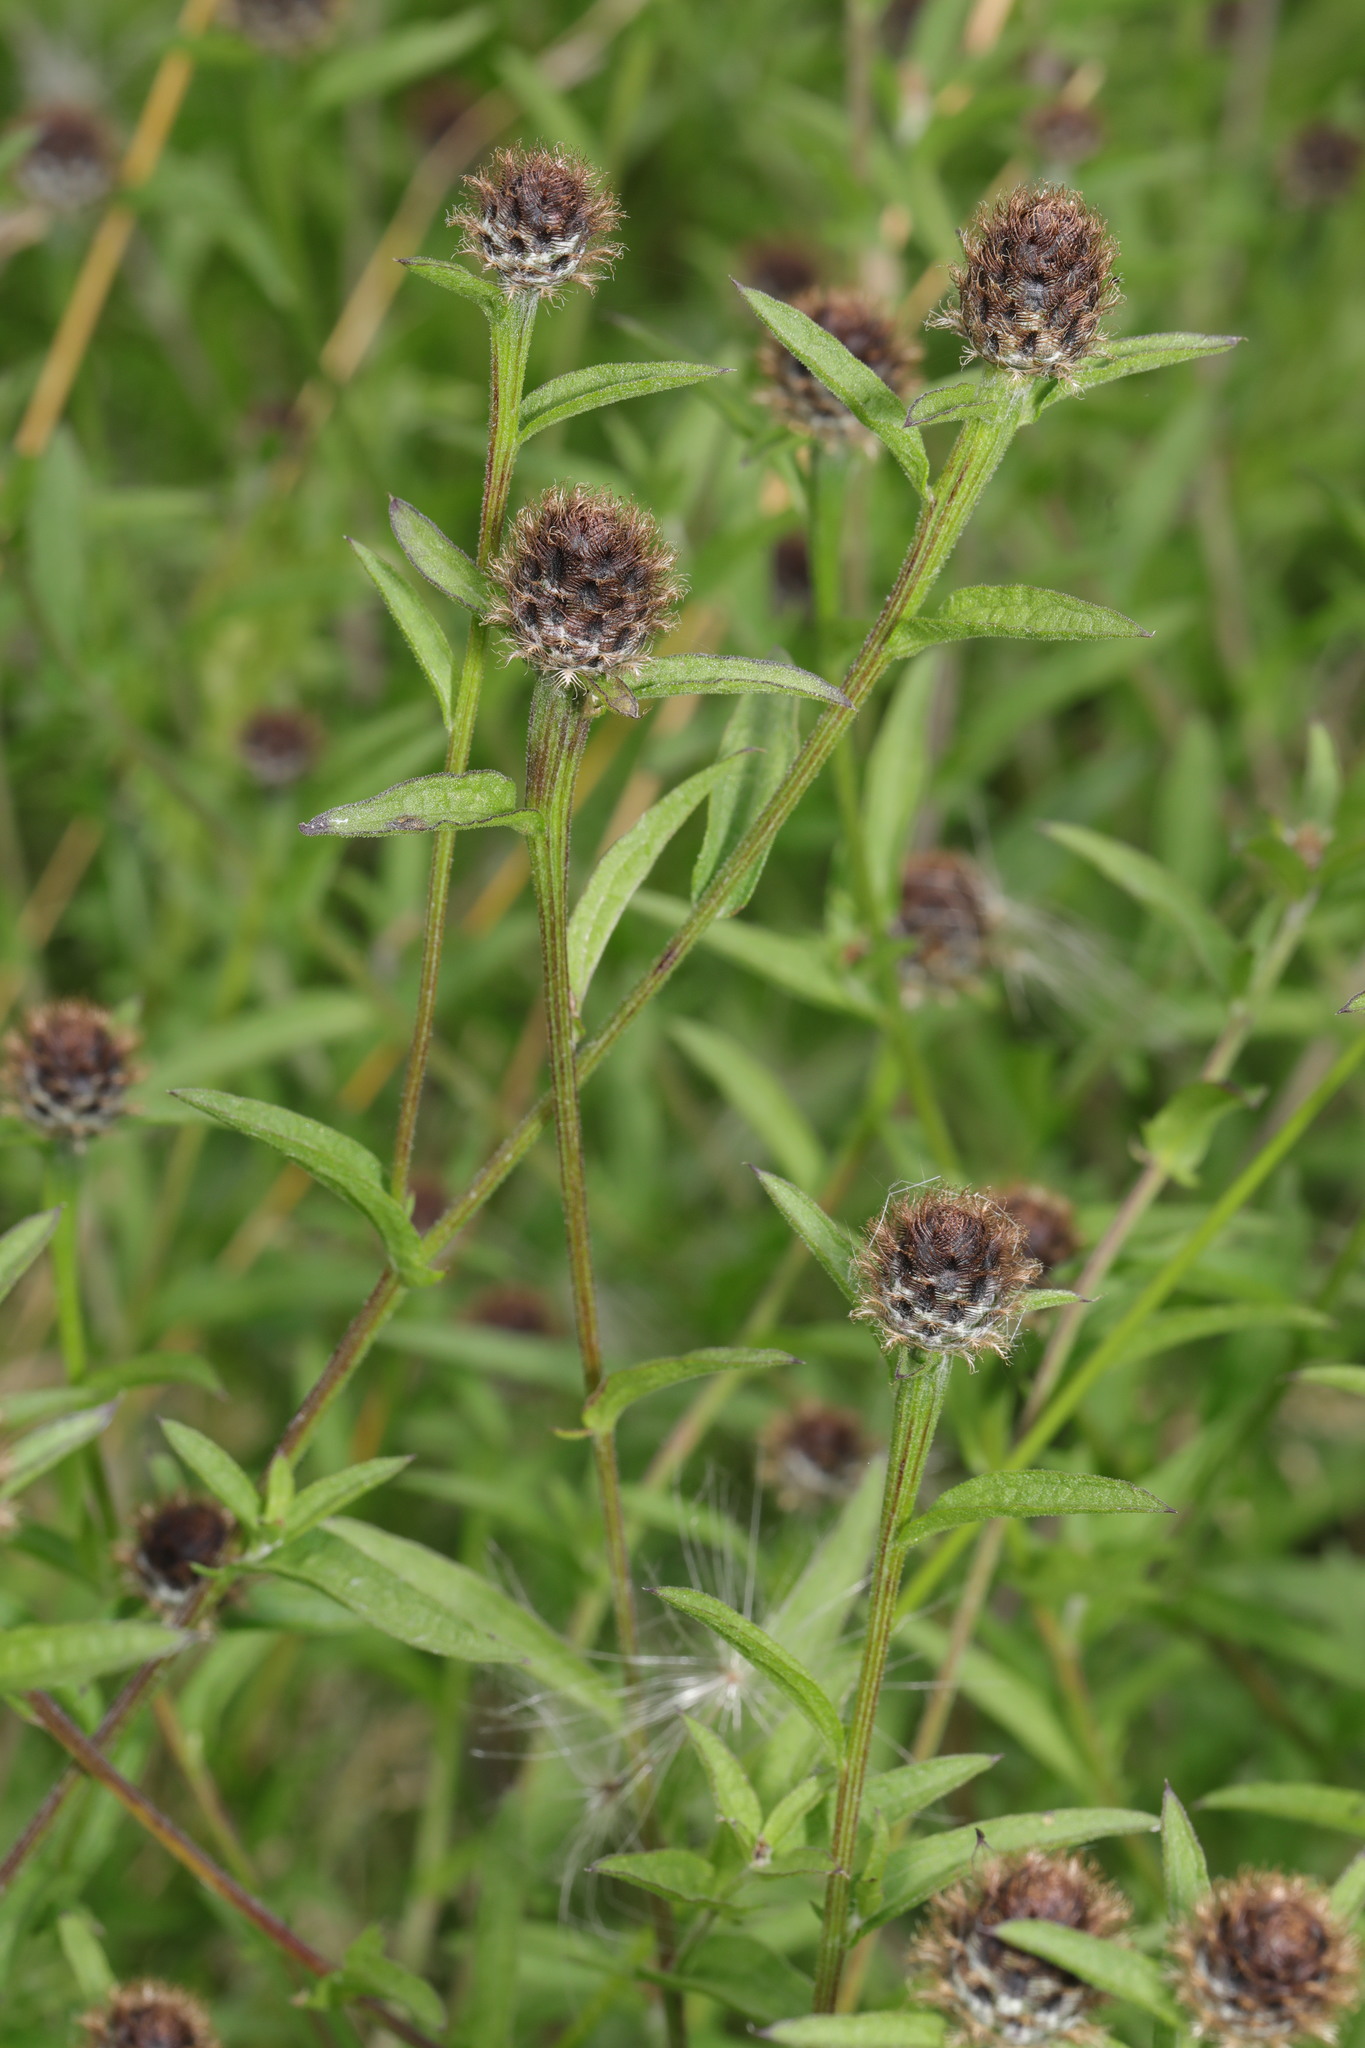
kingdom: Plantae
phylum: Tracheophyta
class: Magnoliopsida
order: Asterales
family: Asteraceae
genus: Centaurea
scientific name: Centaurea nigra
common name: Lesser knapweed
